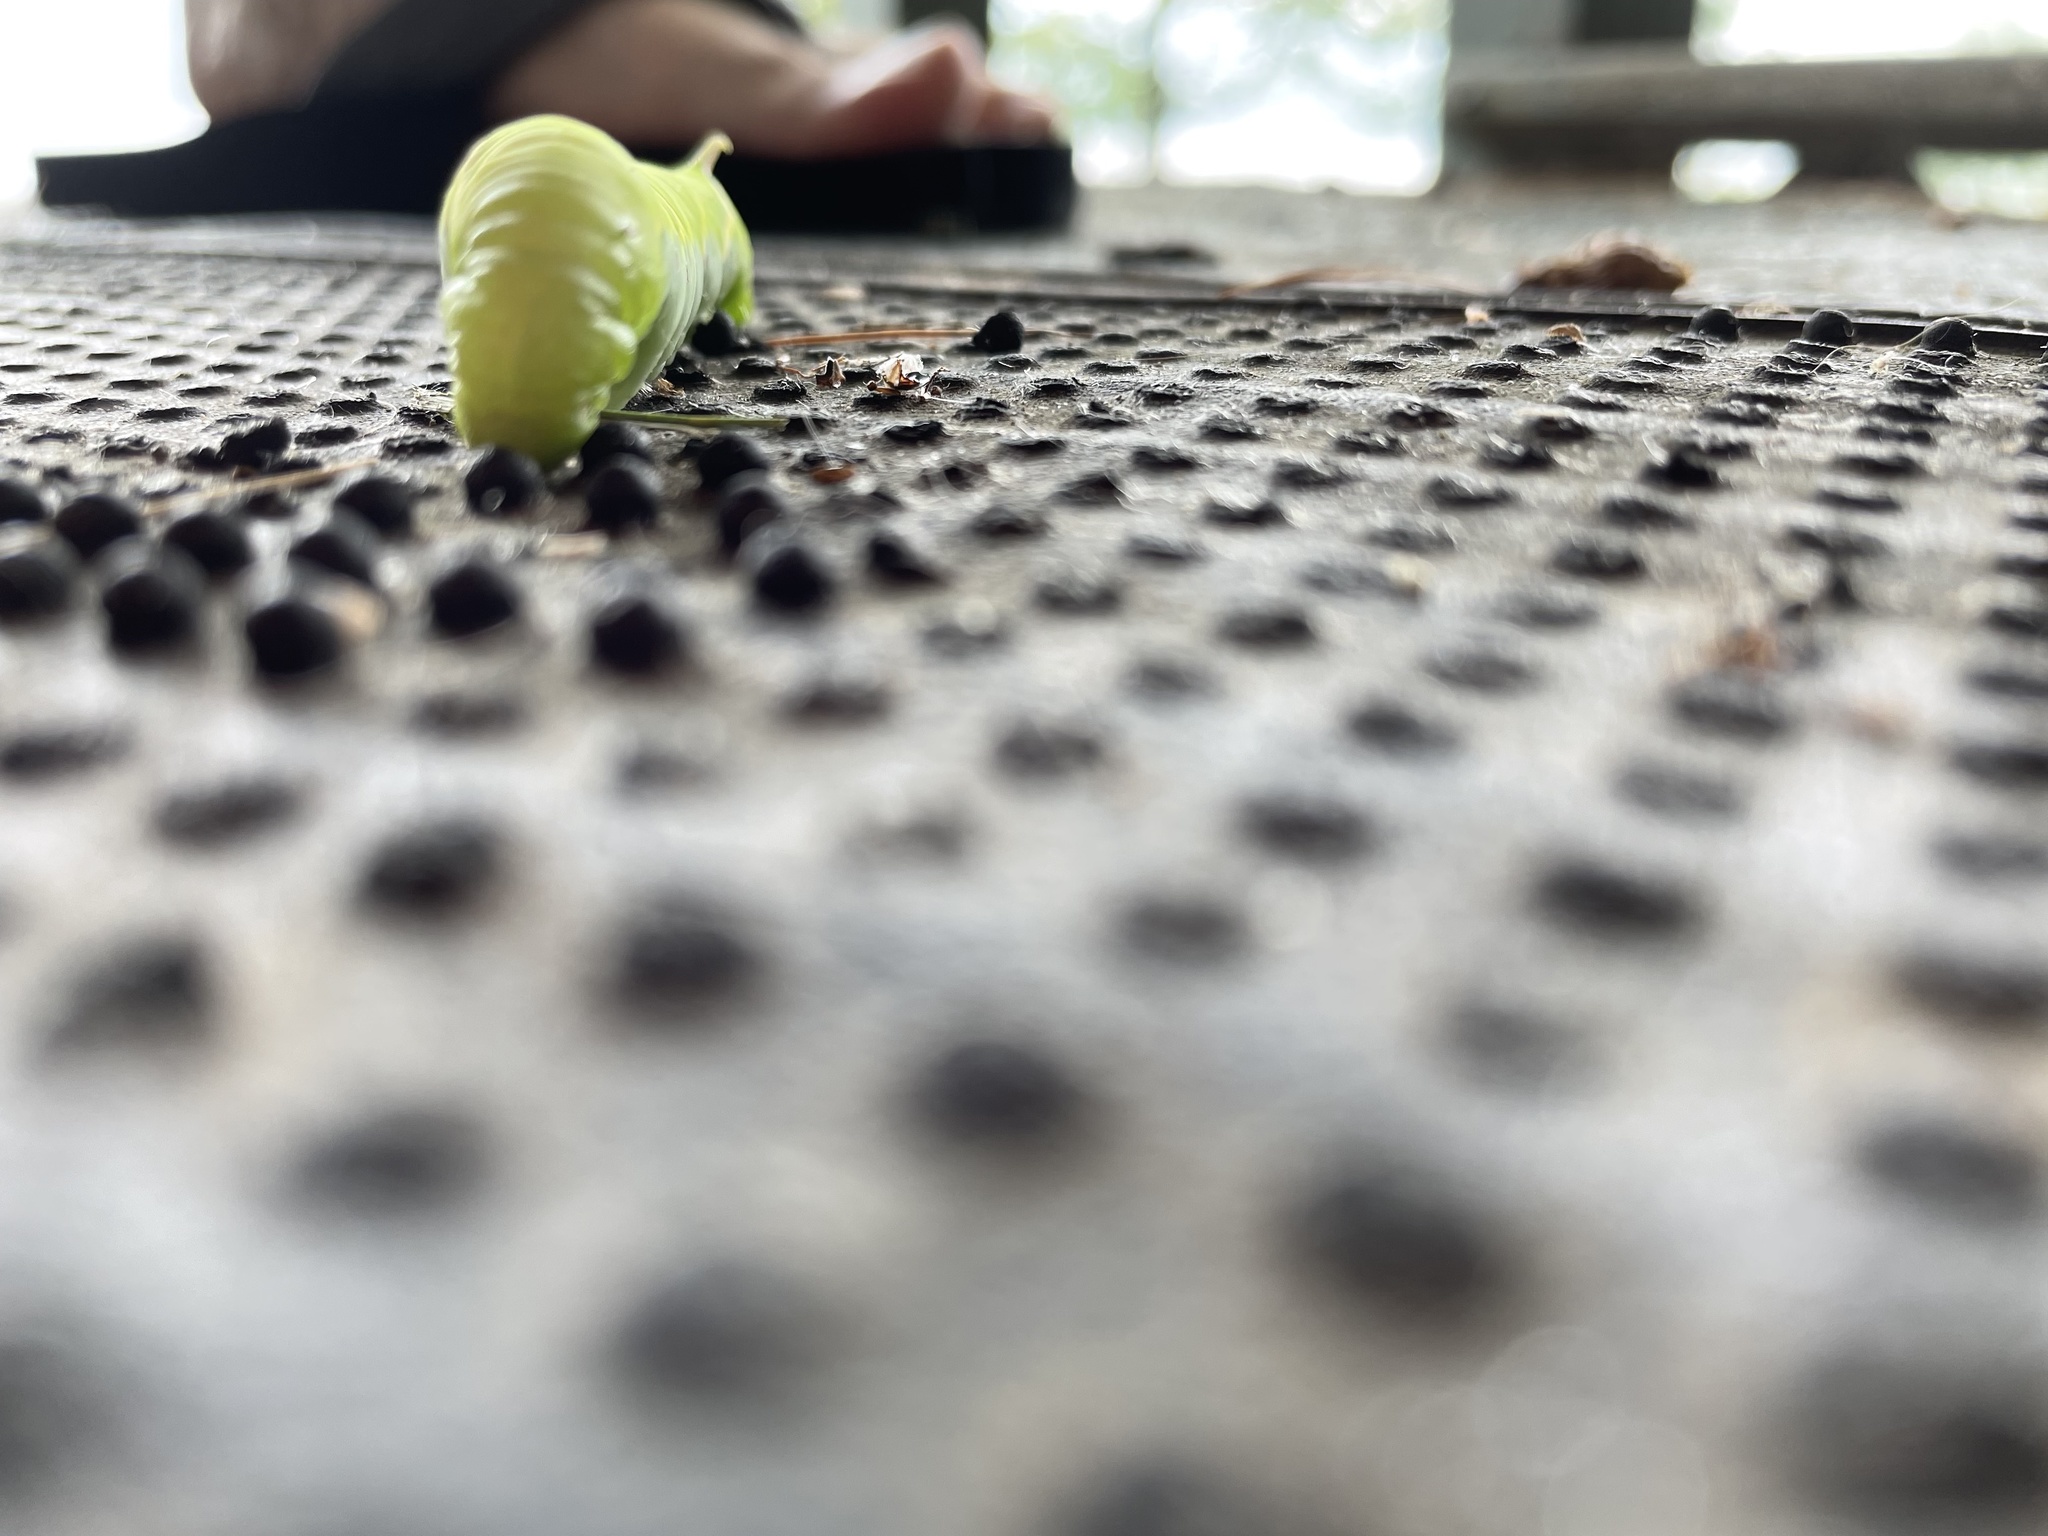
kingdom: Animalia
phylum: Arthropoda
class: Insecta
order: Lepidoptera
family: Sphingidae
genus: Ceratomia
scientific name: Ceratomia undulosa
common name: Waved sphinx
